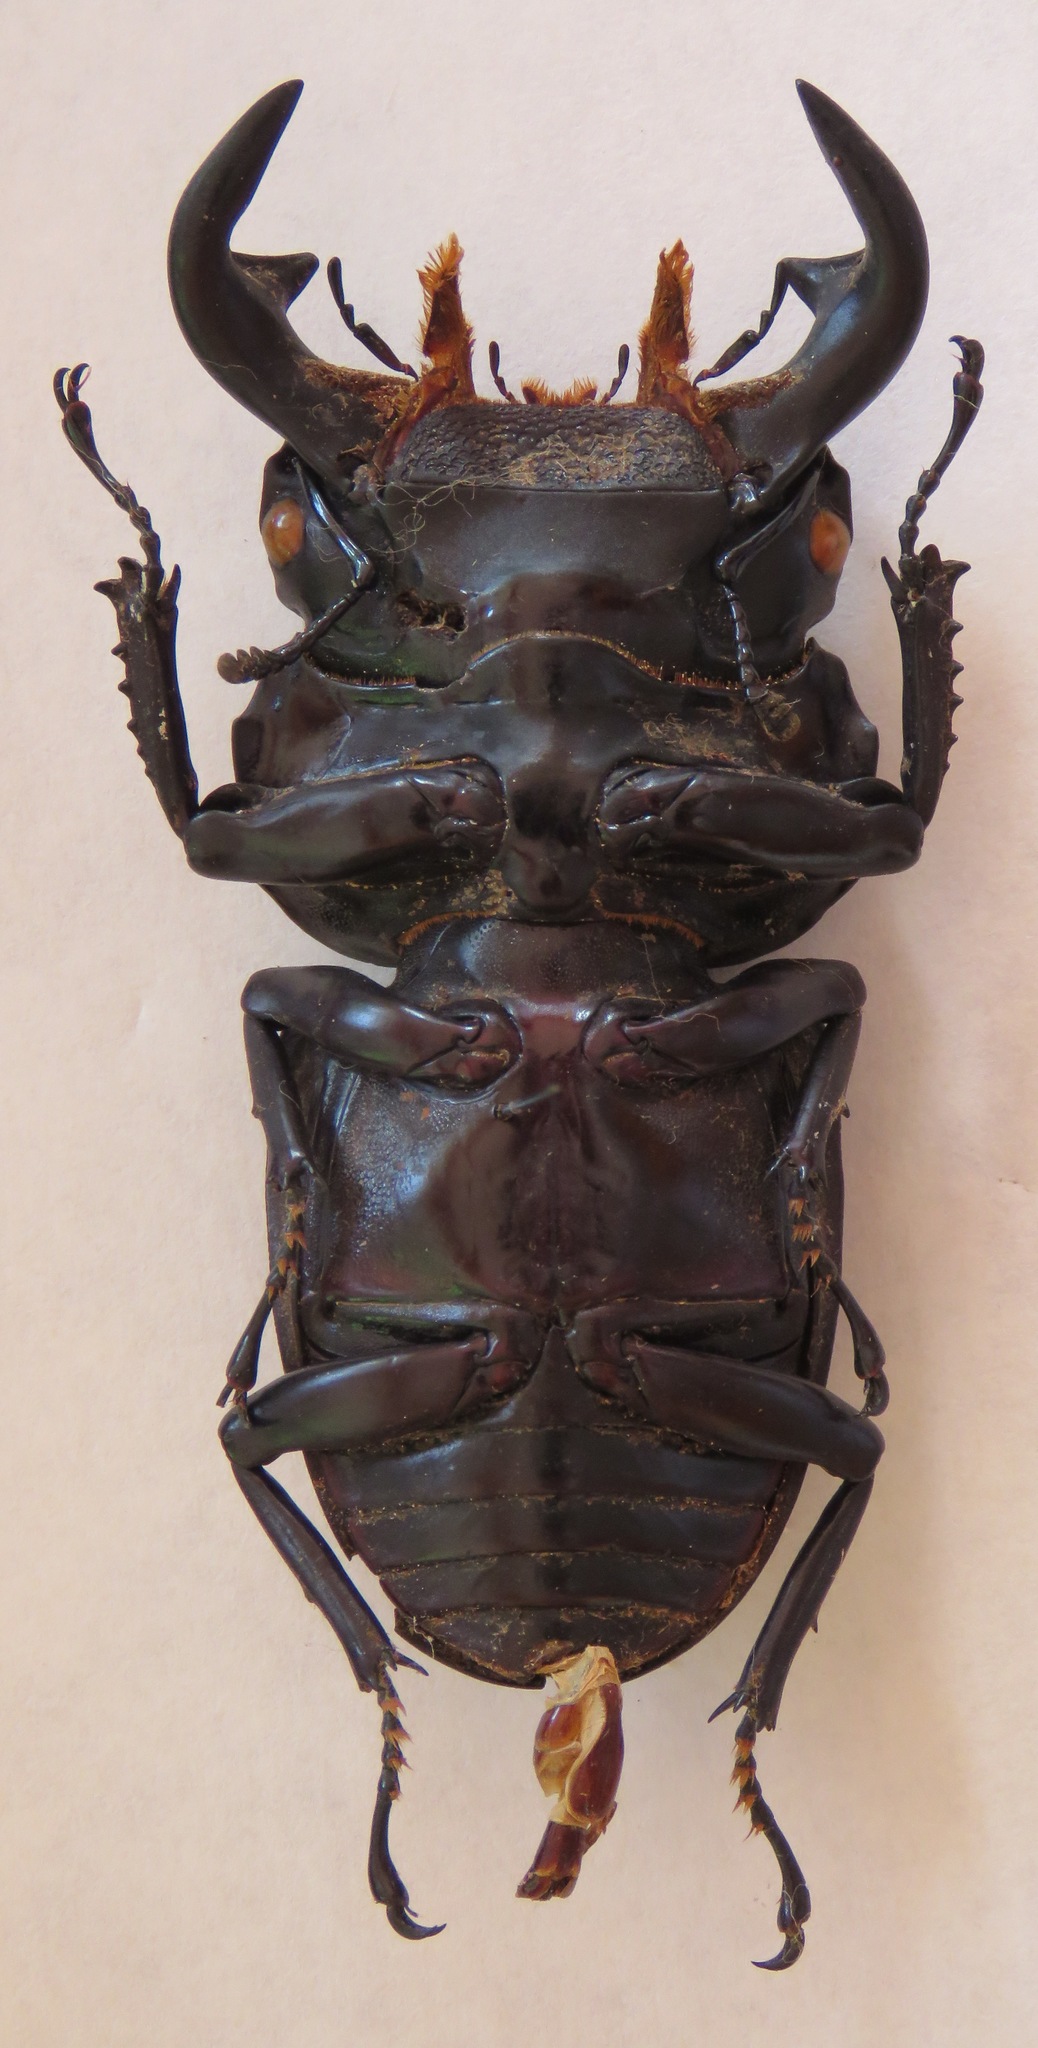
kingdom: Animalia
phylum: Arthropoda
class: Insecta
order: Coleoptera
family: Lucanidae
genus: Dorcus
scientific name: Dorcus antaeus
